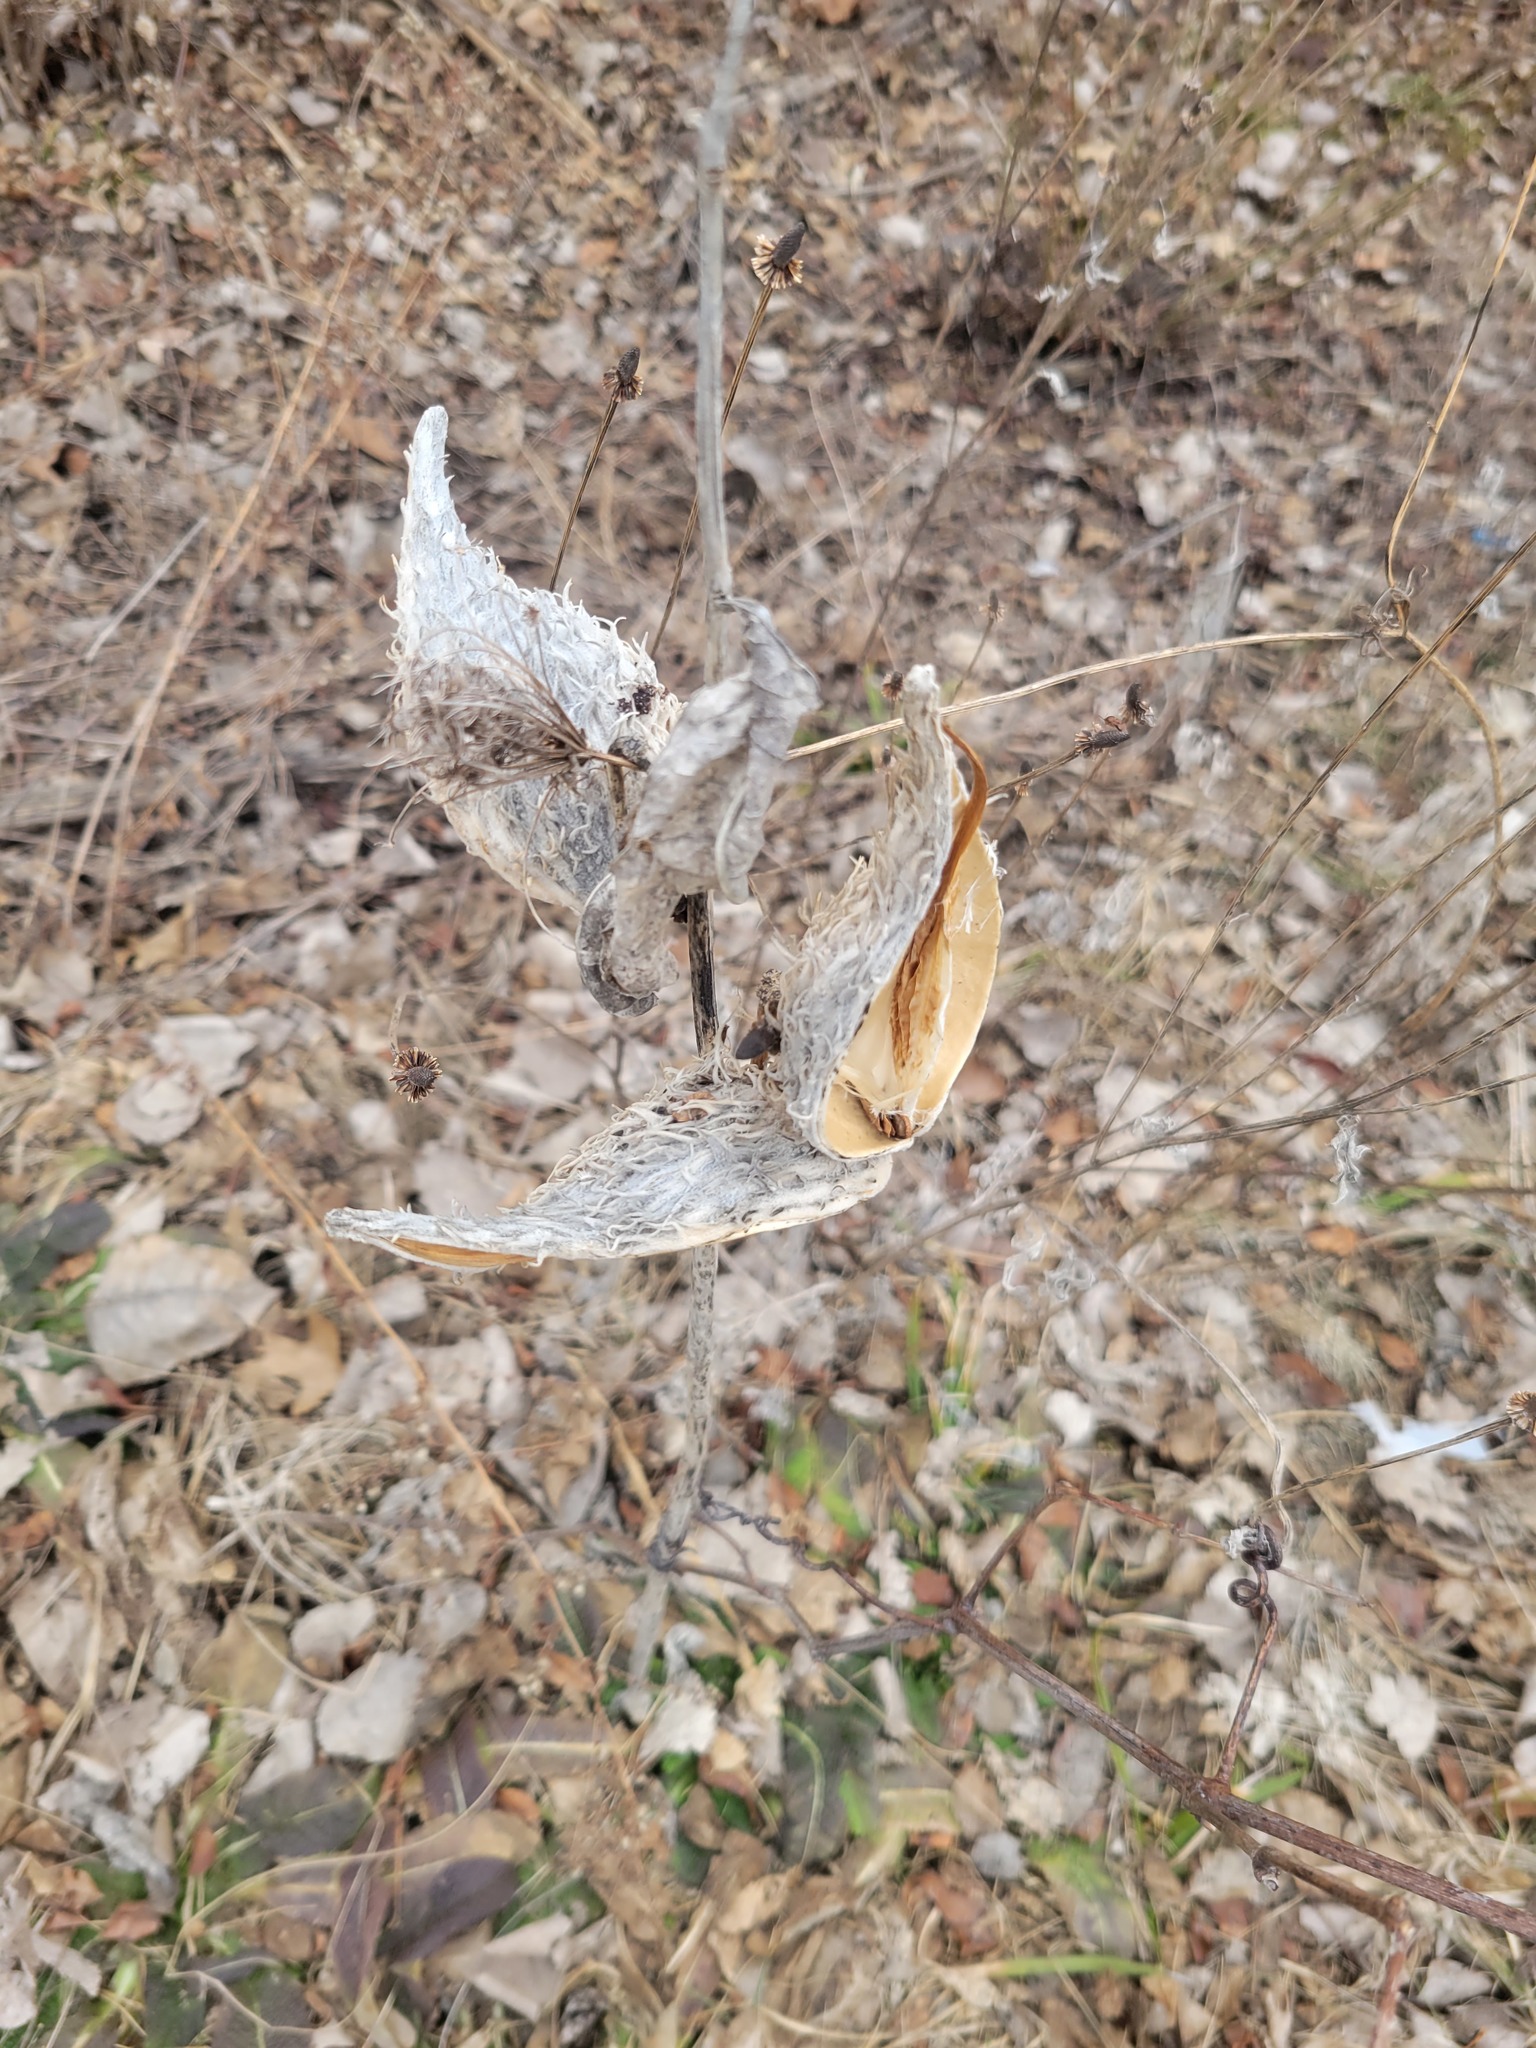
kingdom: Plantae
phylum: Tracheophyta
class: Magnoliopsida
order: Gentianales
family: Apocynaceae
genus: Asclepias
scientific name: Asclepias syriaca
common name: Common milkweed
